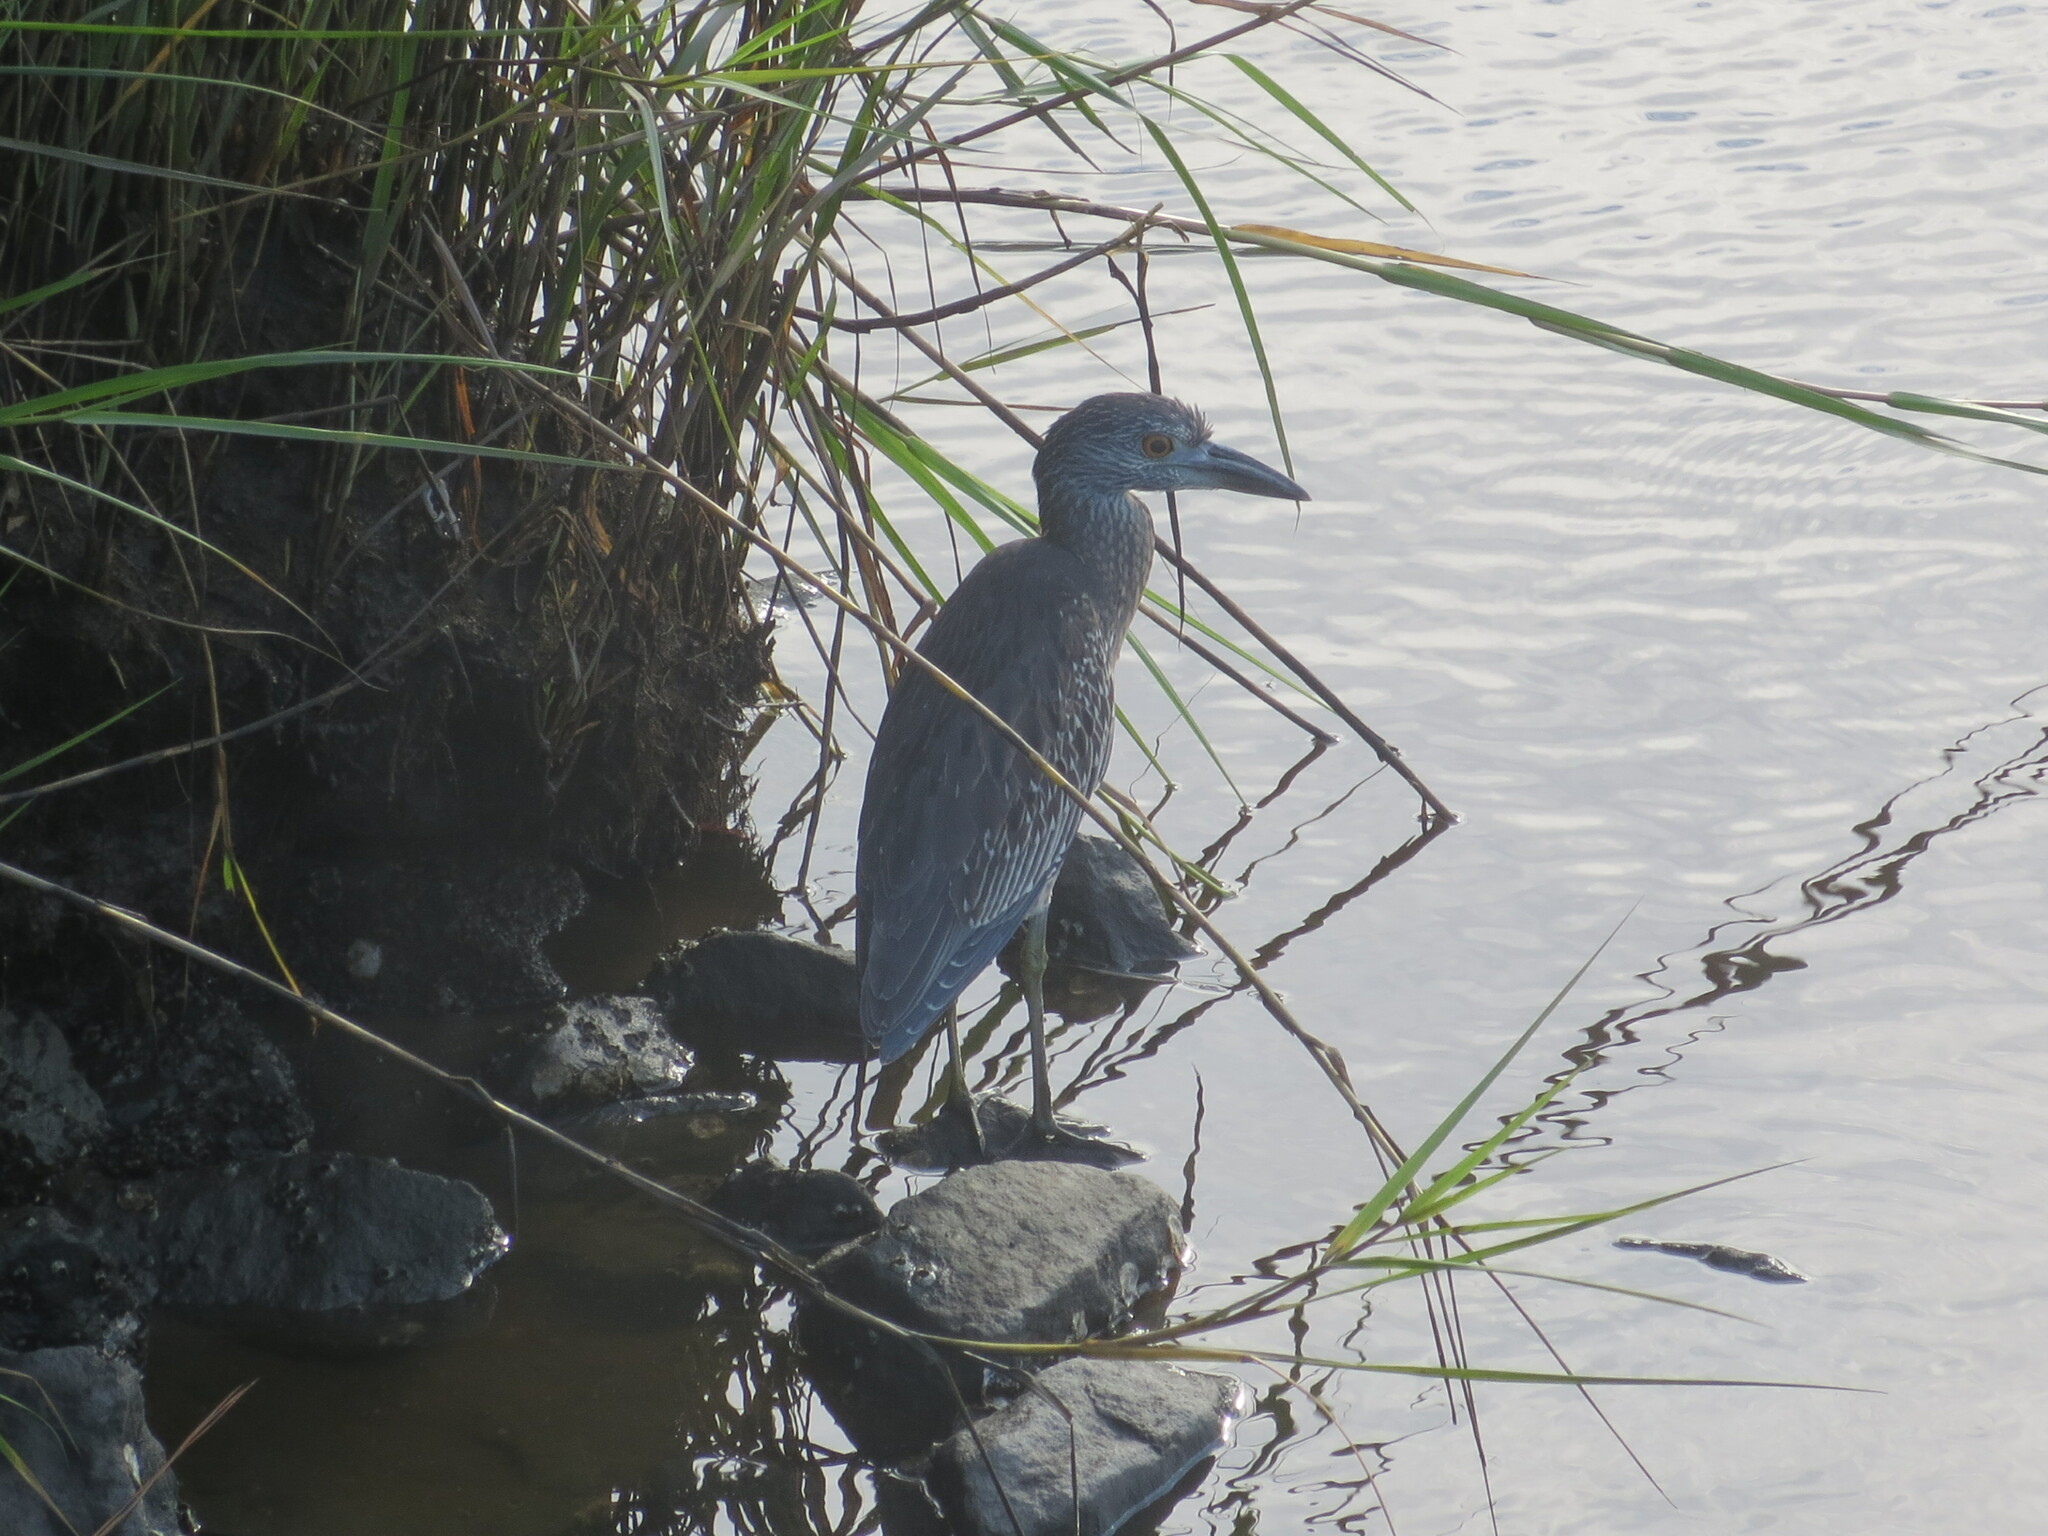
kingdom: Animalia
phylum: Chordata
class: Aves
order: Pelecaniformes
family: Ardeidae
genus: Nyctanassa
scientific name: Nyctanassa violacea
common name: Yellow-crowned night heron
